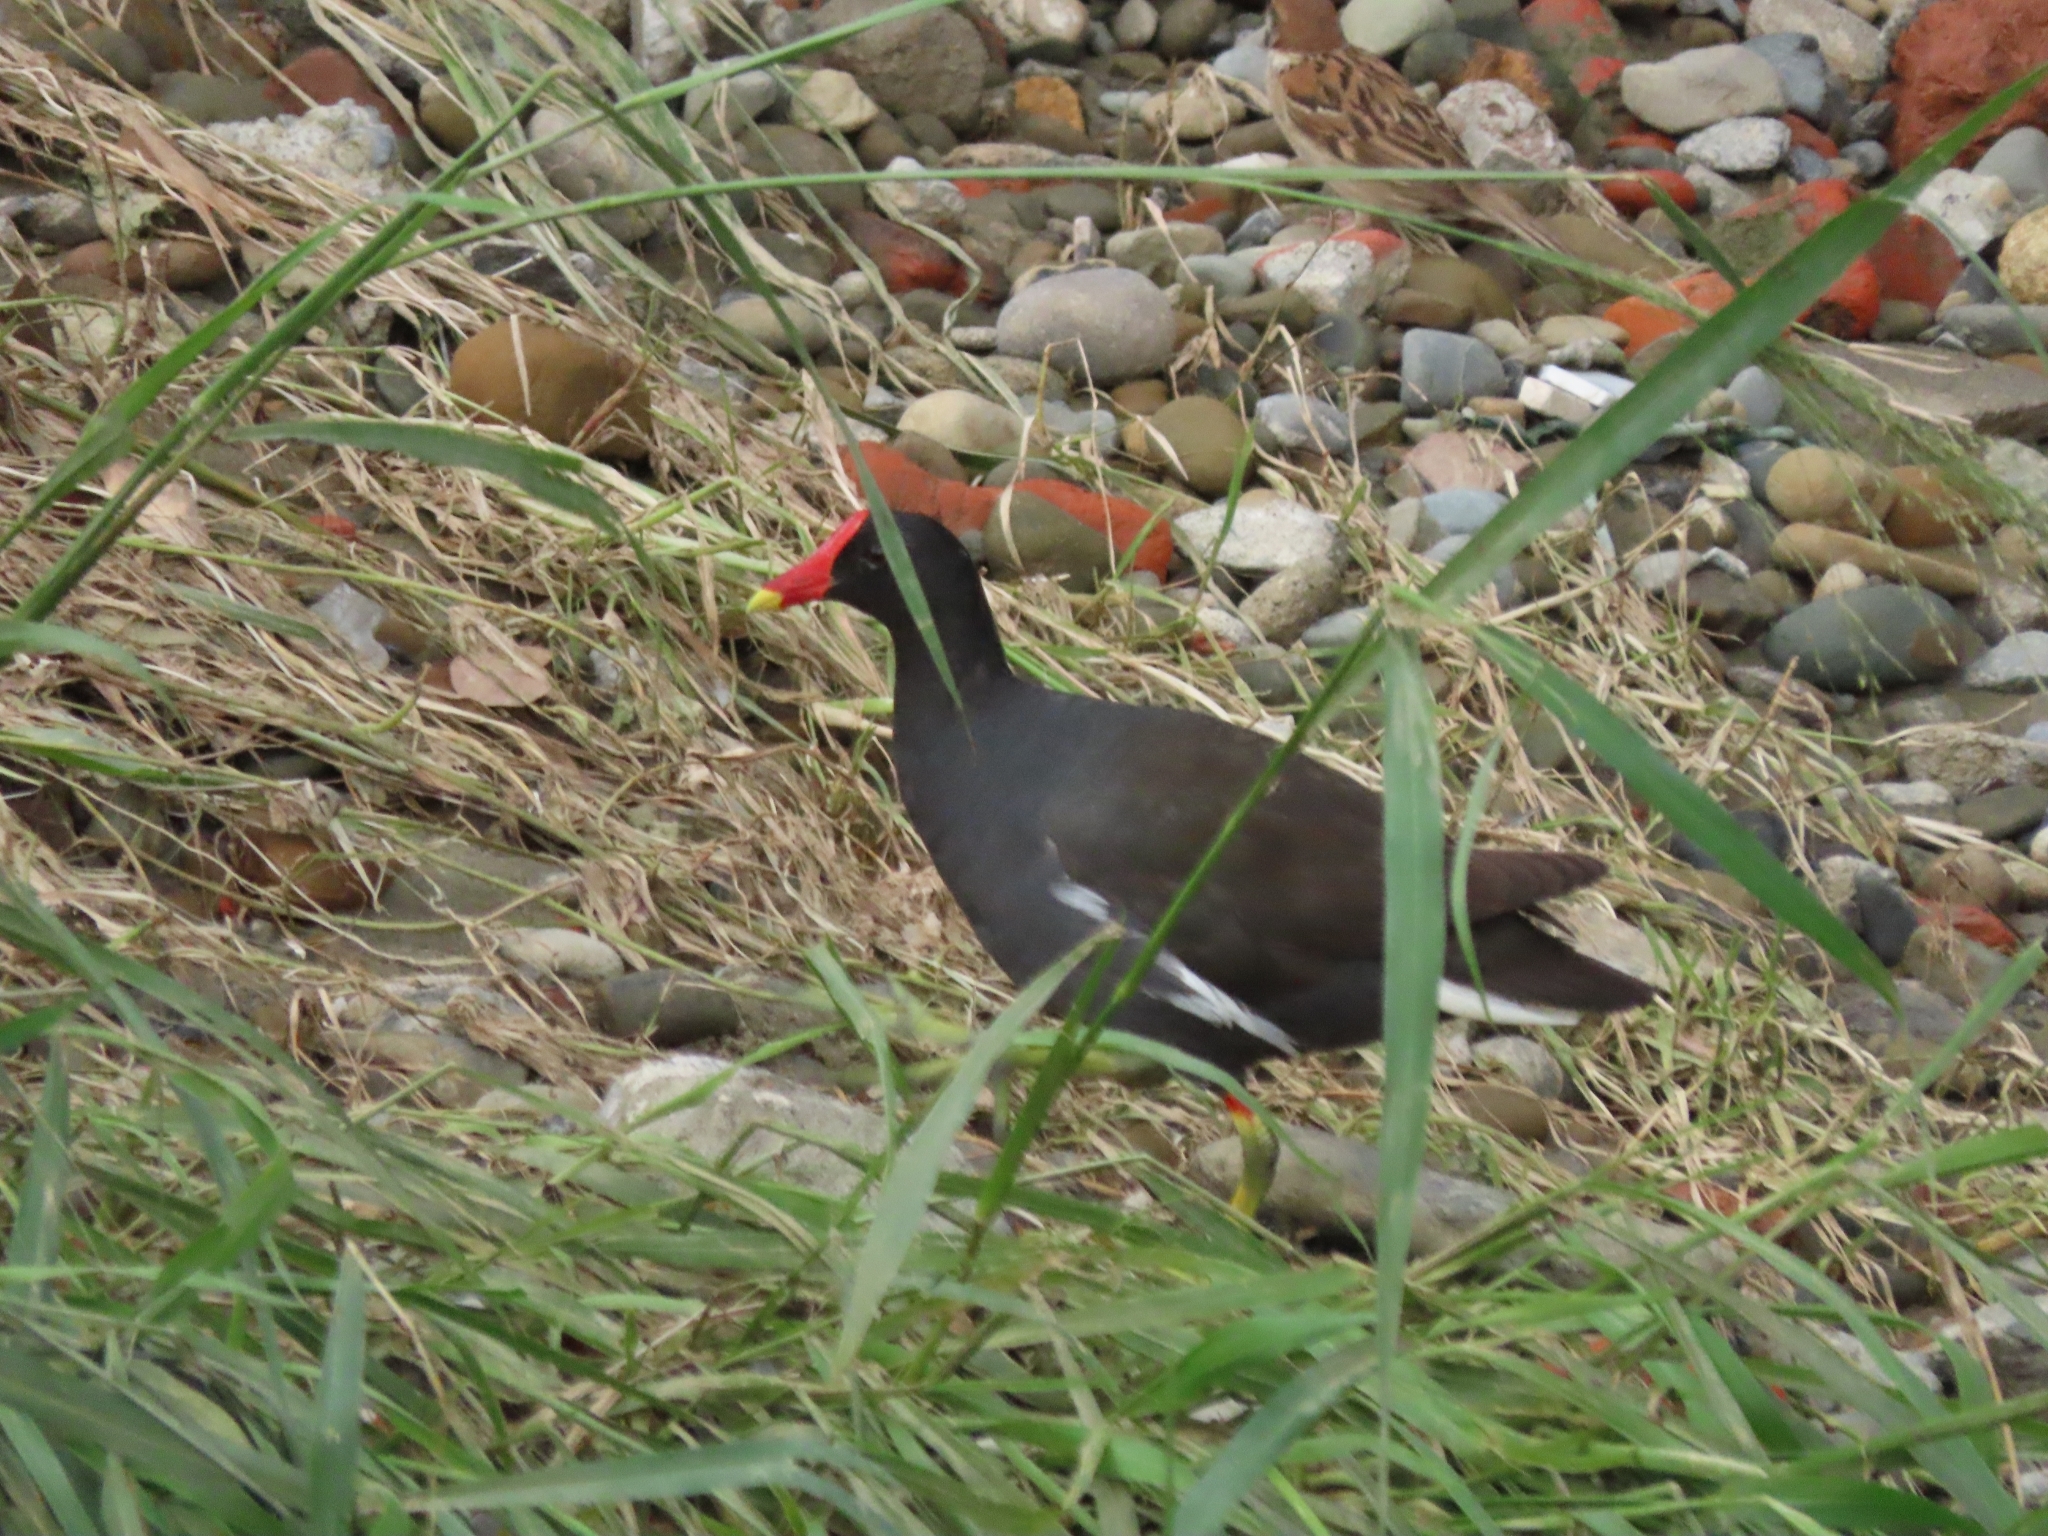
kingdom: Animalia
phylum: Chordata
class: Aves
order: Gruiformes
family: Rallidae
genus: Gallinula
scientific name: Gallinula chloropus
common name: Common moorhen
